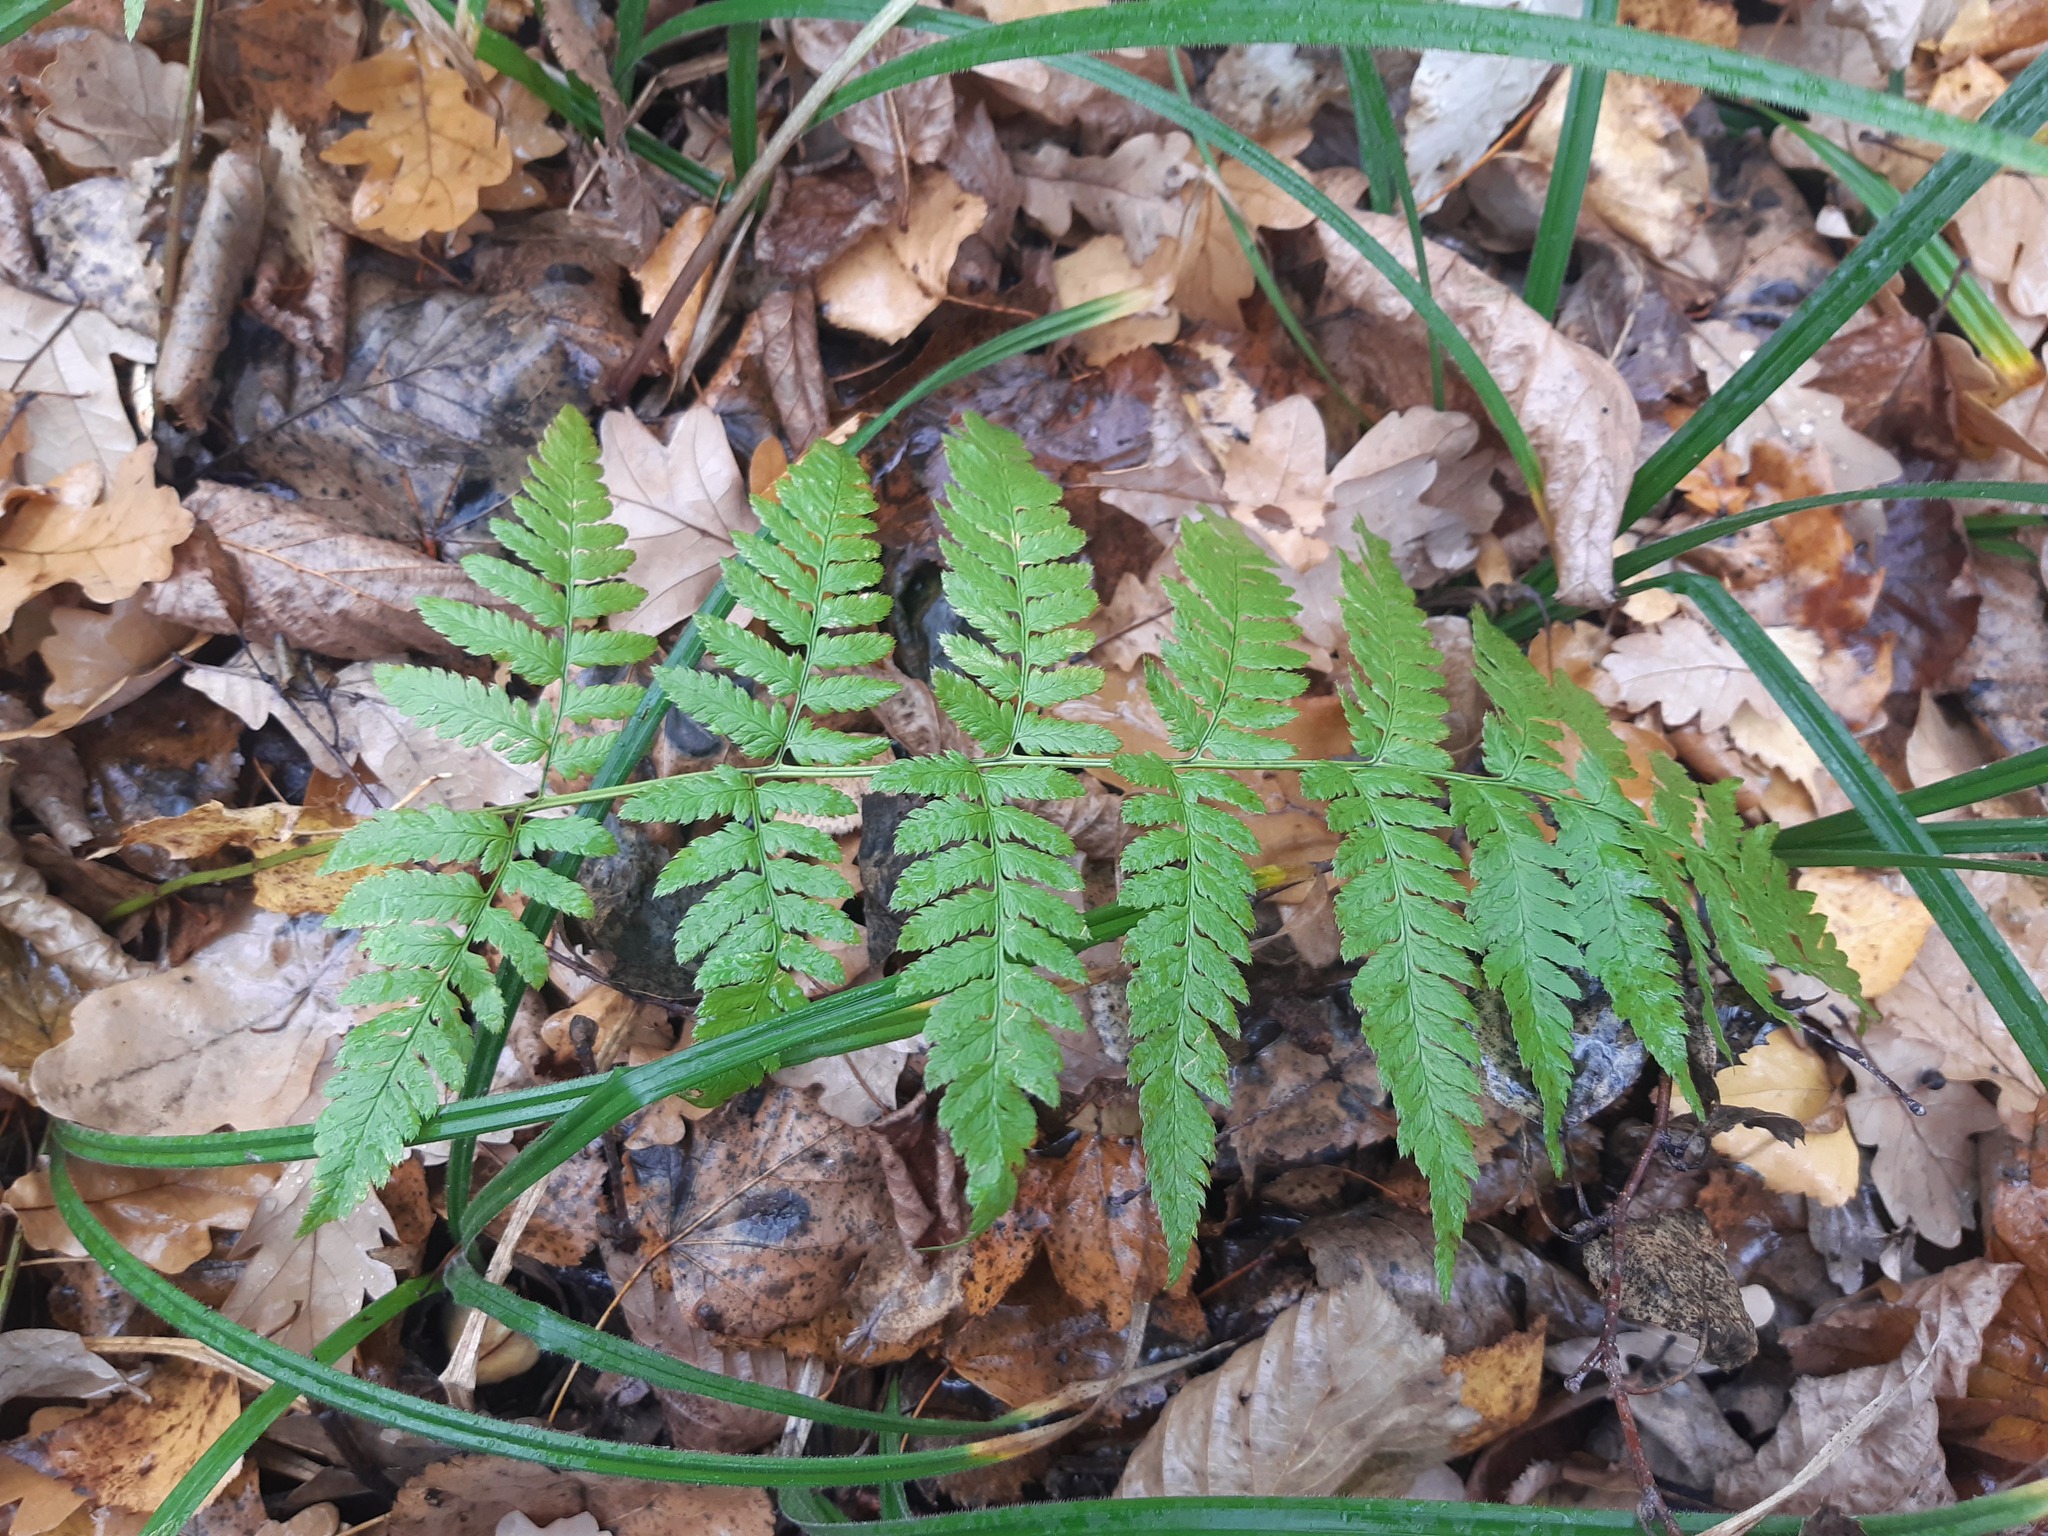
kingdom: Plantae
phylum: Tracheophyta
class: Polypodiopsida
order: Polypodiales
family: Dryopteridaceae
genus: Dryopteris
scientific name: Dryopteris carthusiana
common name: Narrow buckler-fern
